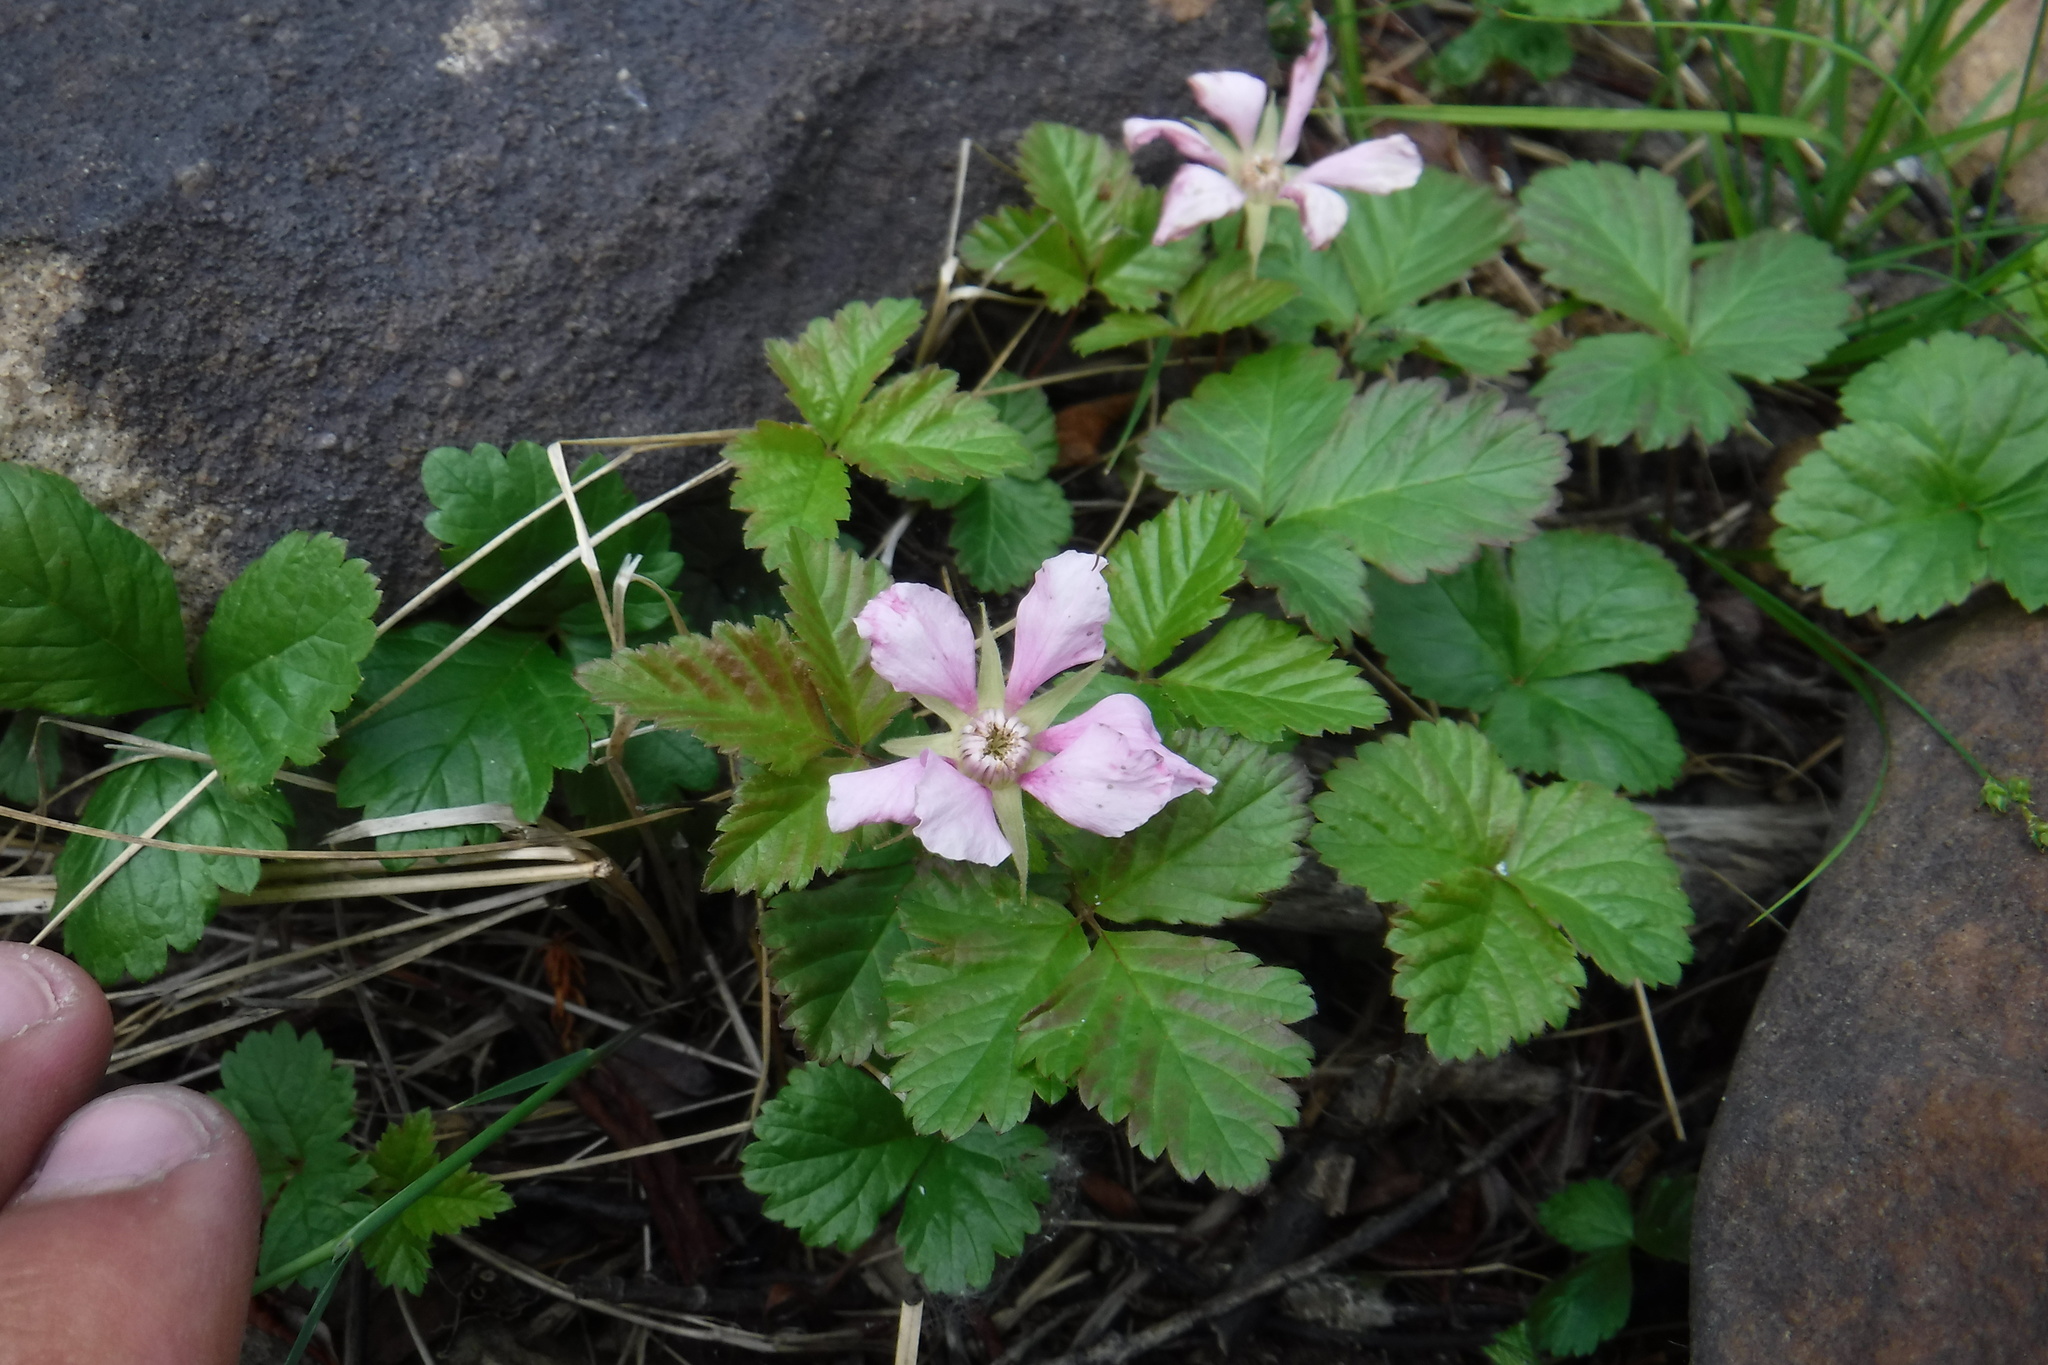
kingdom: Plantae
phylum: Tracheophyta
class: Magnoliopsida
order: Rosales
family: Rosaceae
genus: Rubus
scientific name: Rubus arcticus
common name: Arctic bramble
